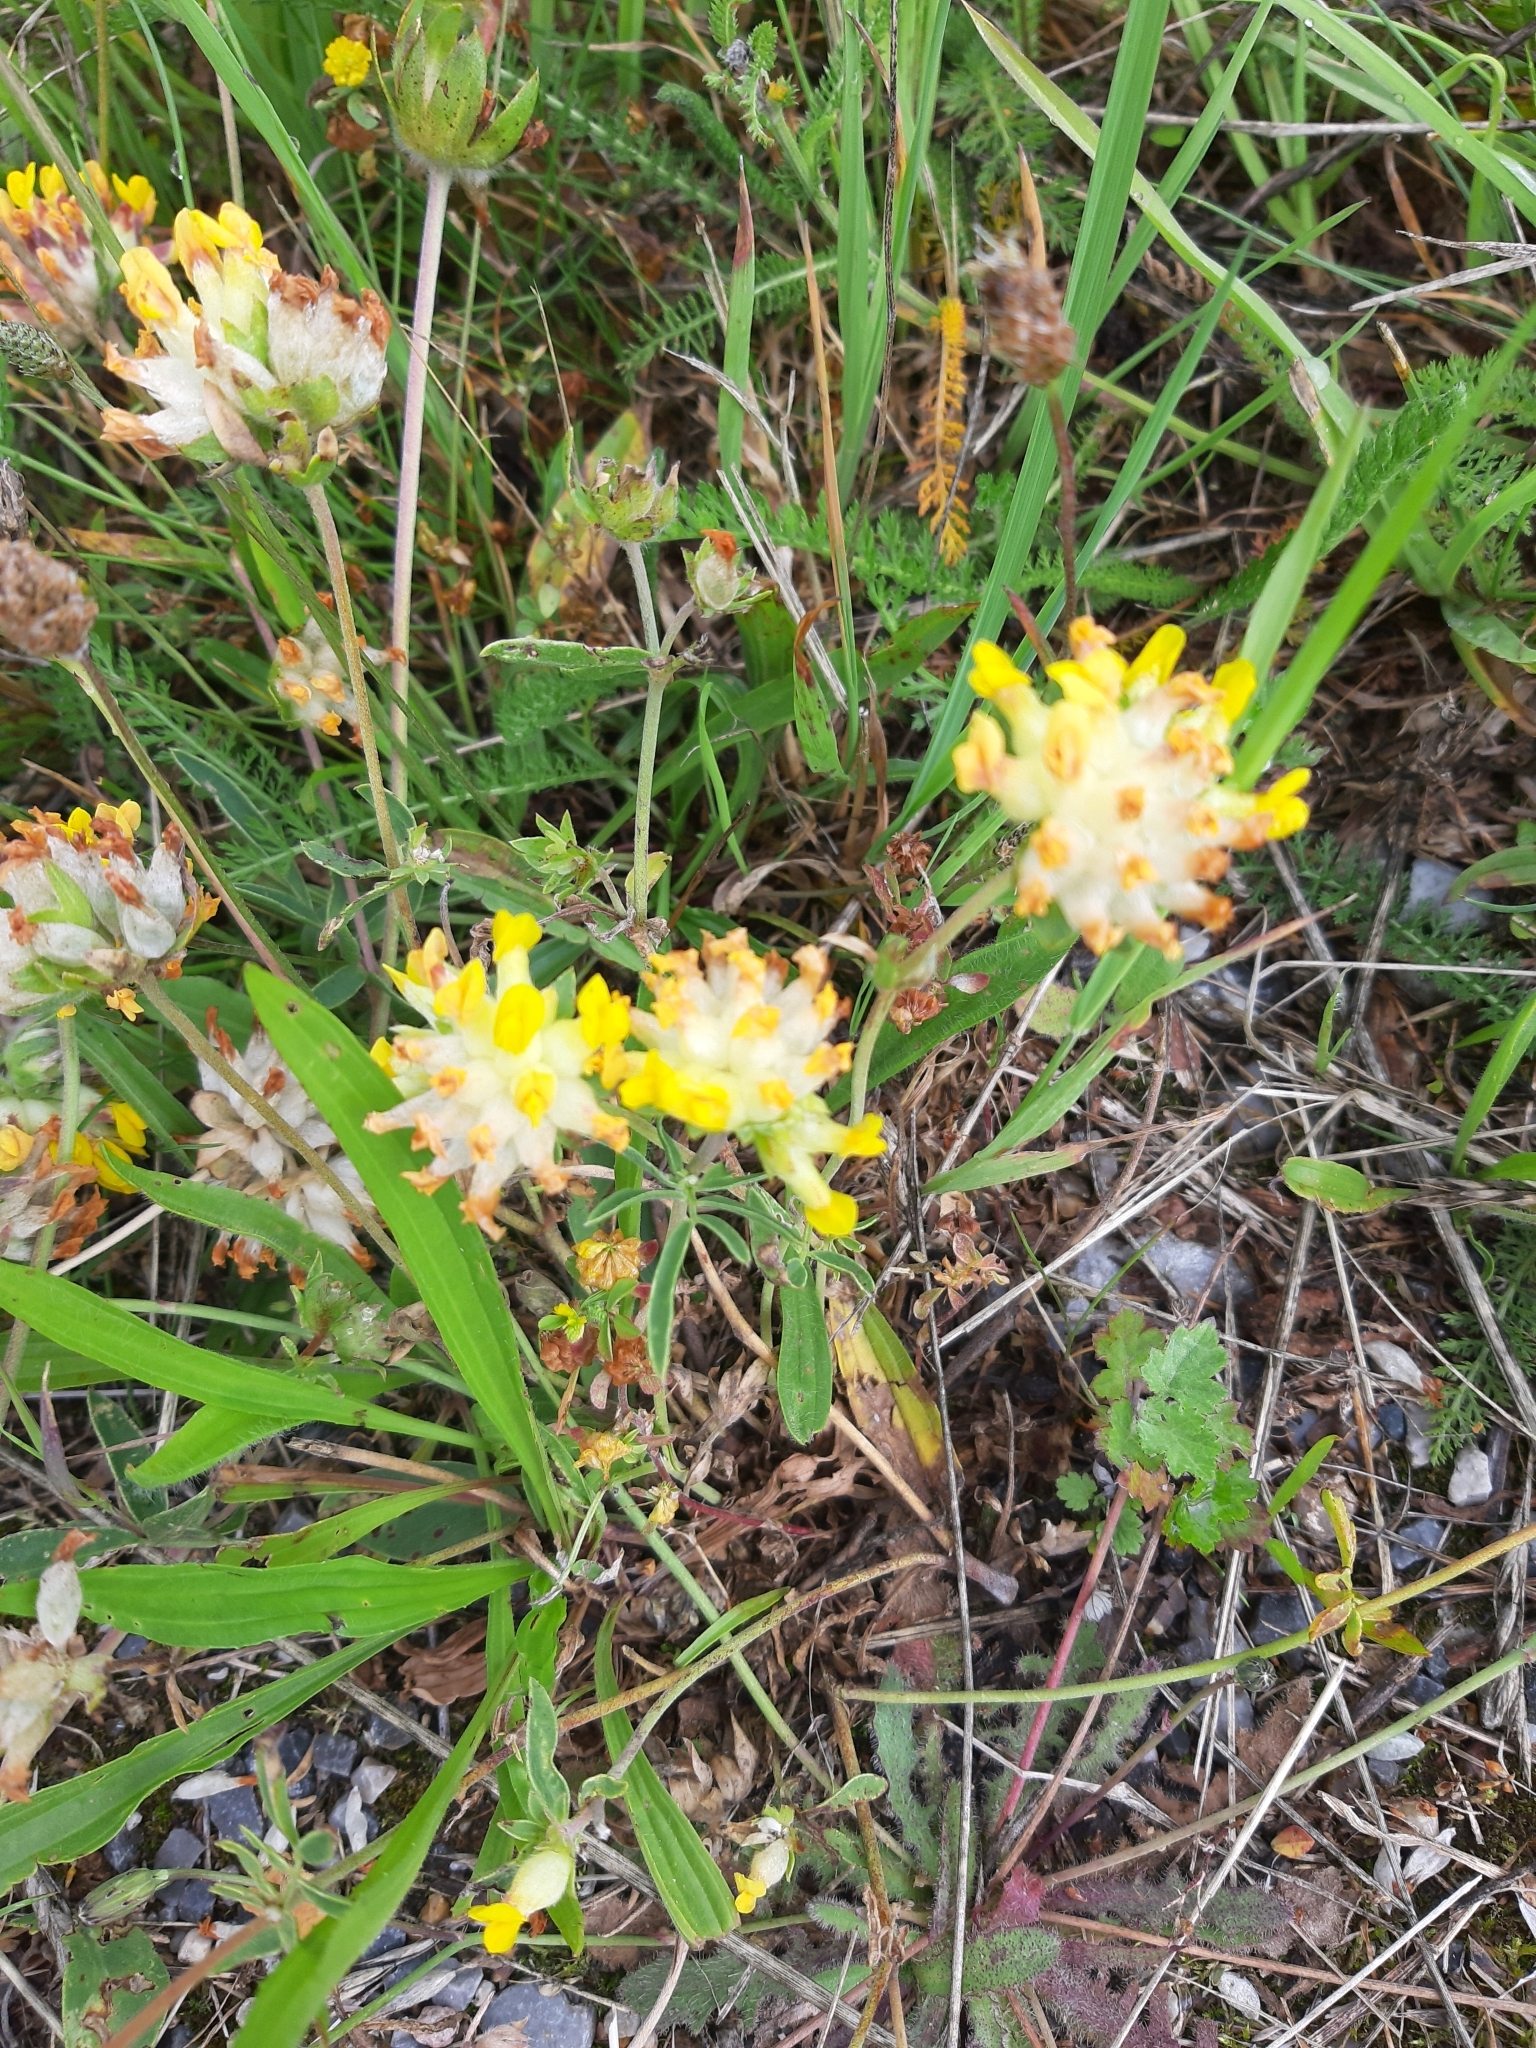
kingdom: Plantae
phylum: Tracheophyta
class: Magnoliopsida
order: Fabales
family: Fabaceae
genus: Anthyllis
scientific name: Anthyllis vulneraria
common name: Kidney vetch
